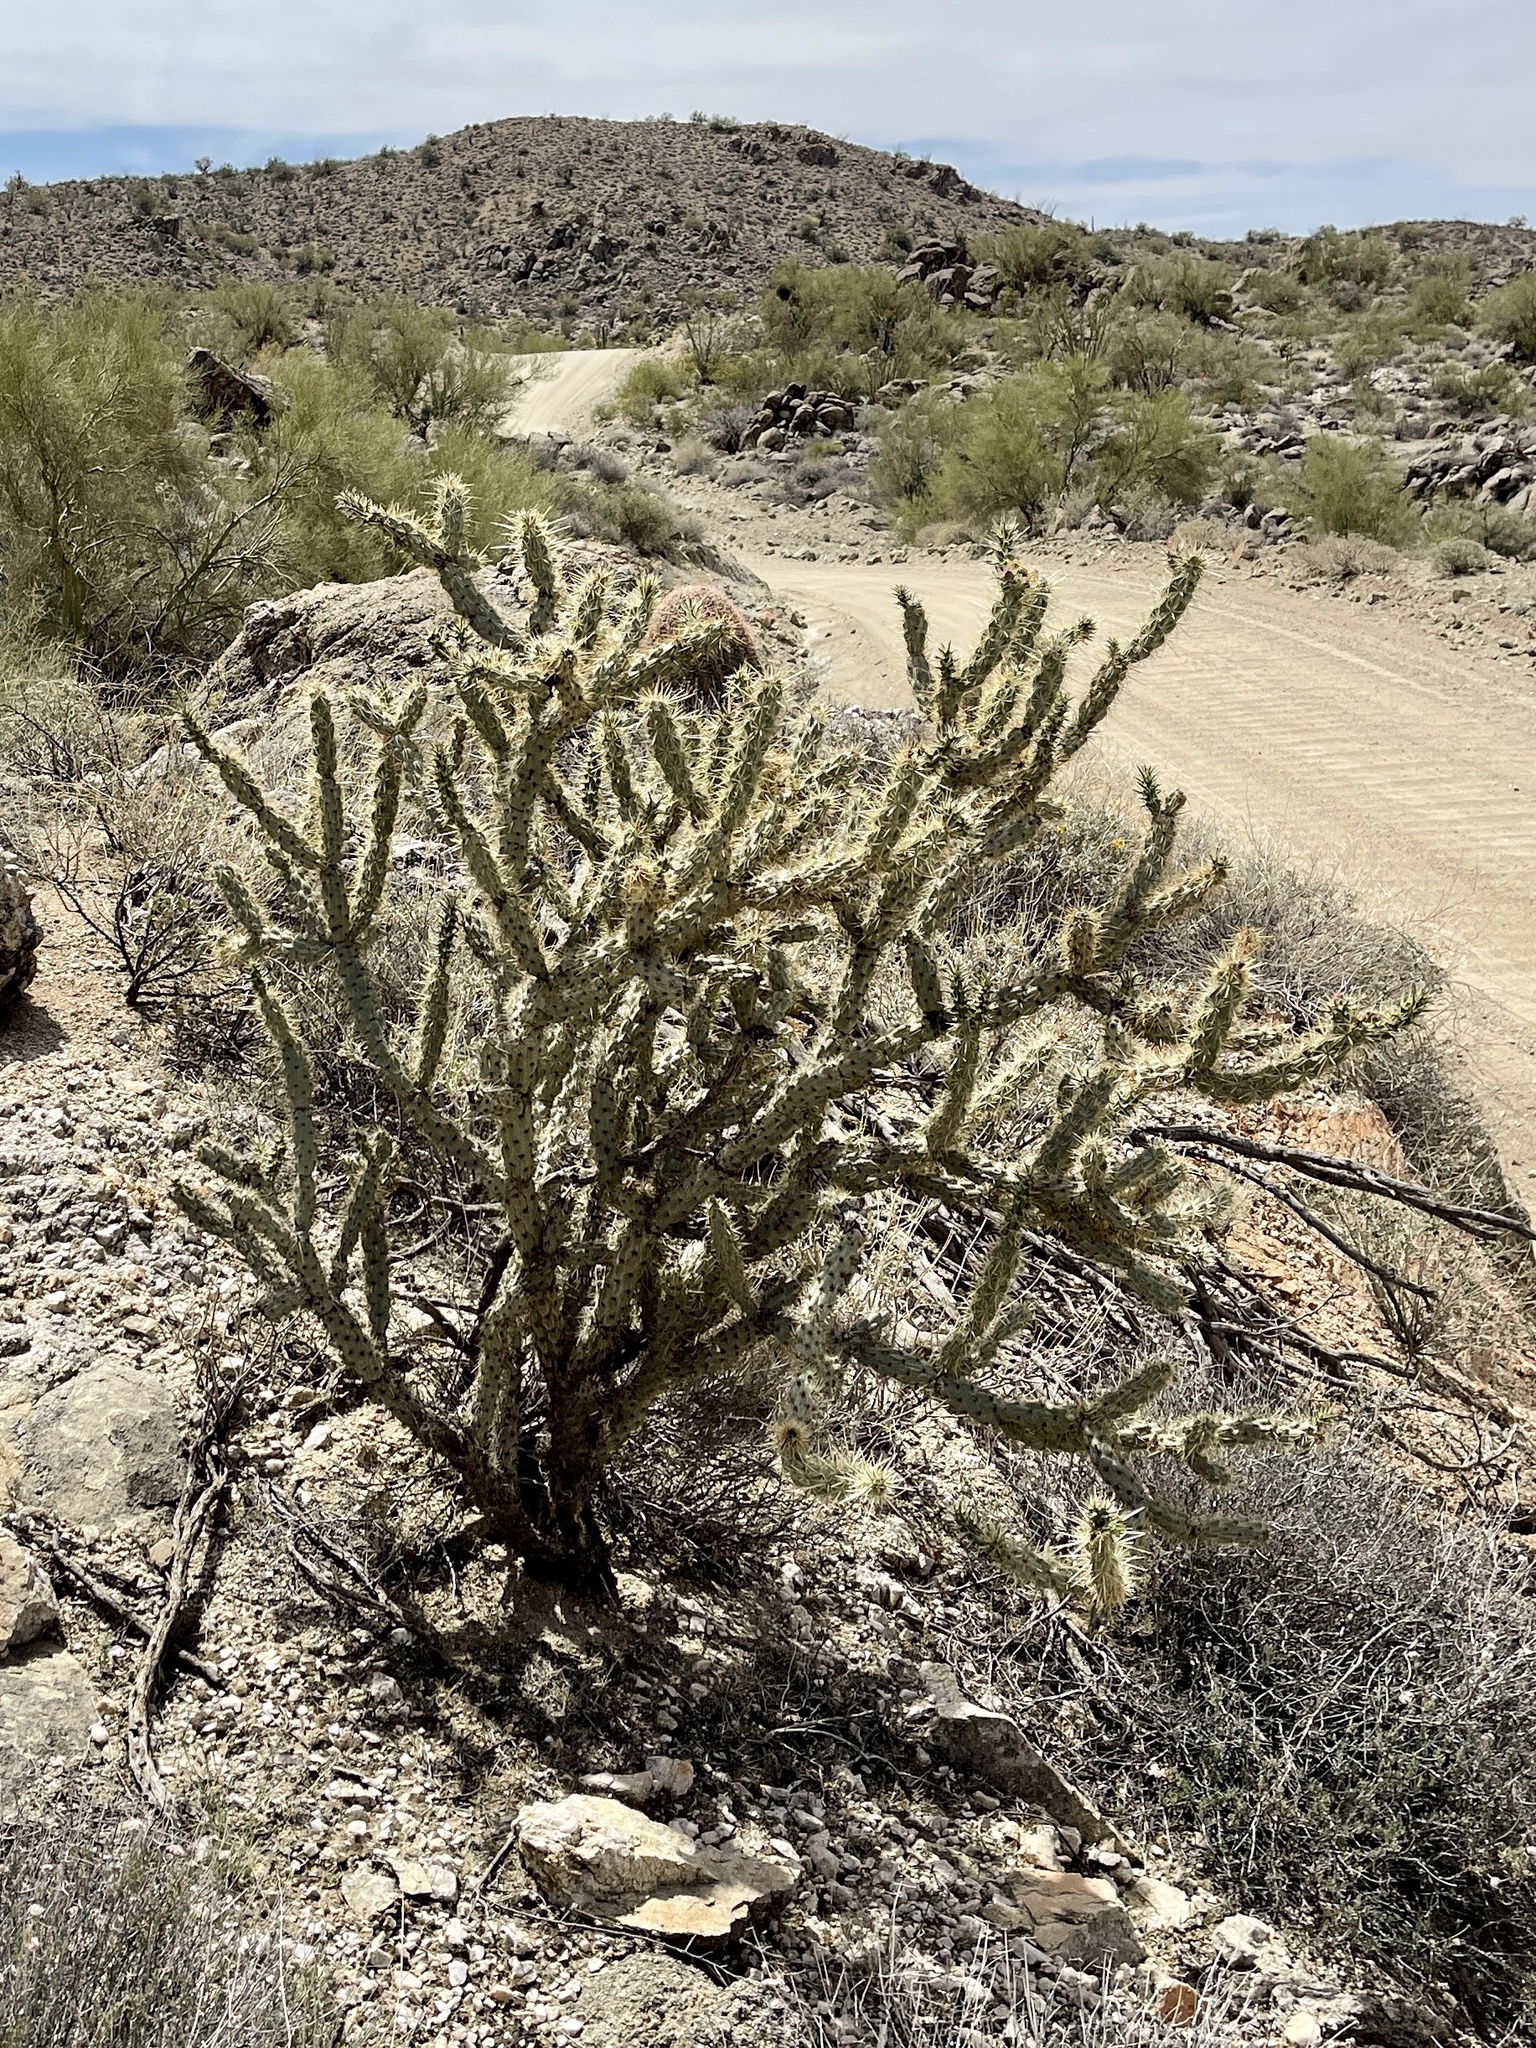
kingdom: Plantae
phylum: Tracheophyta
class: Magnoliopsida
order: Caryophyllales
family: Cactaceae
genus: Cylindropuntia
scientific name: Cylindropuntia acanthocarpa
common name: Buckhorn cholla
